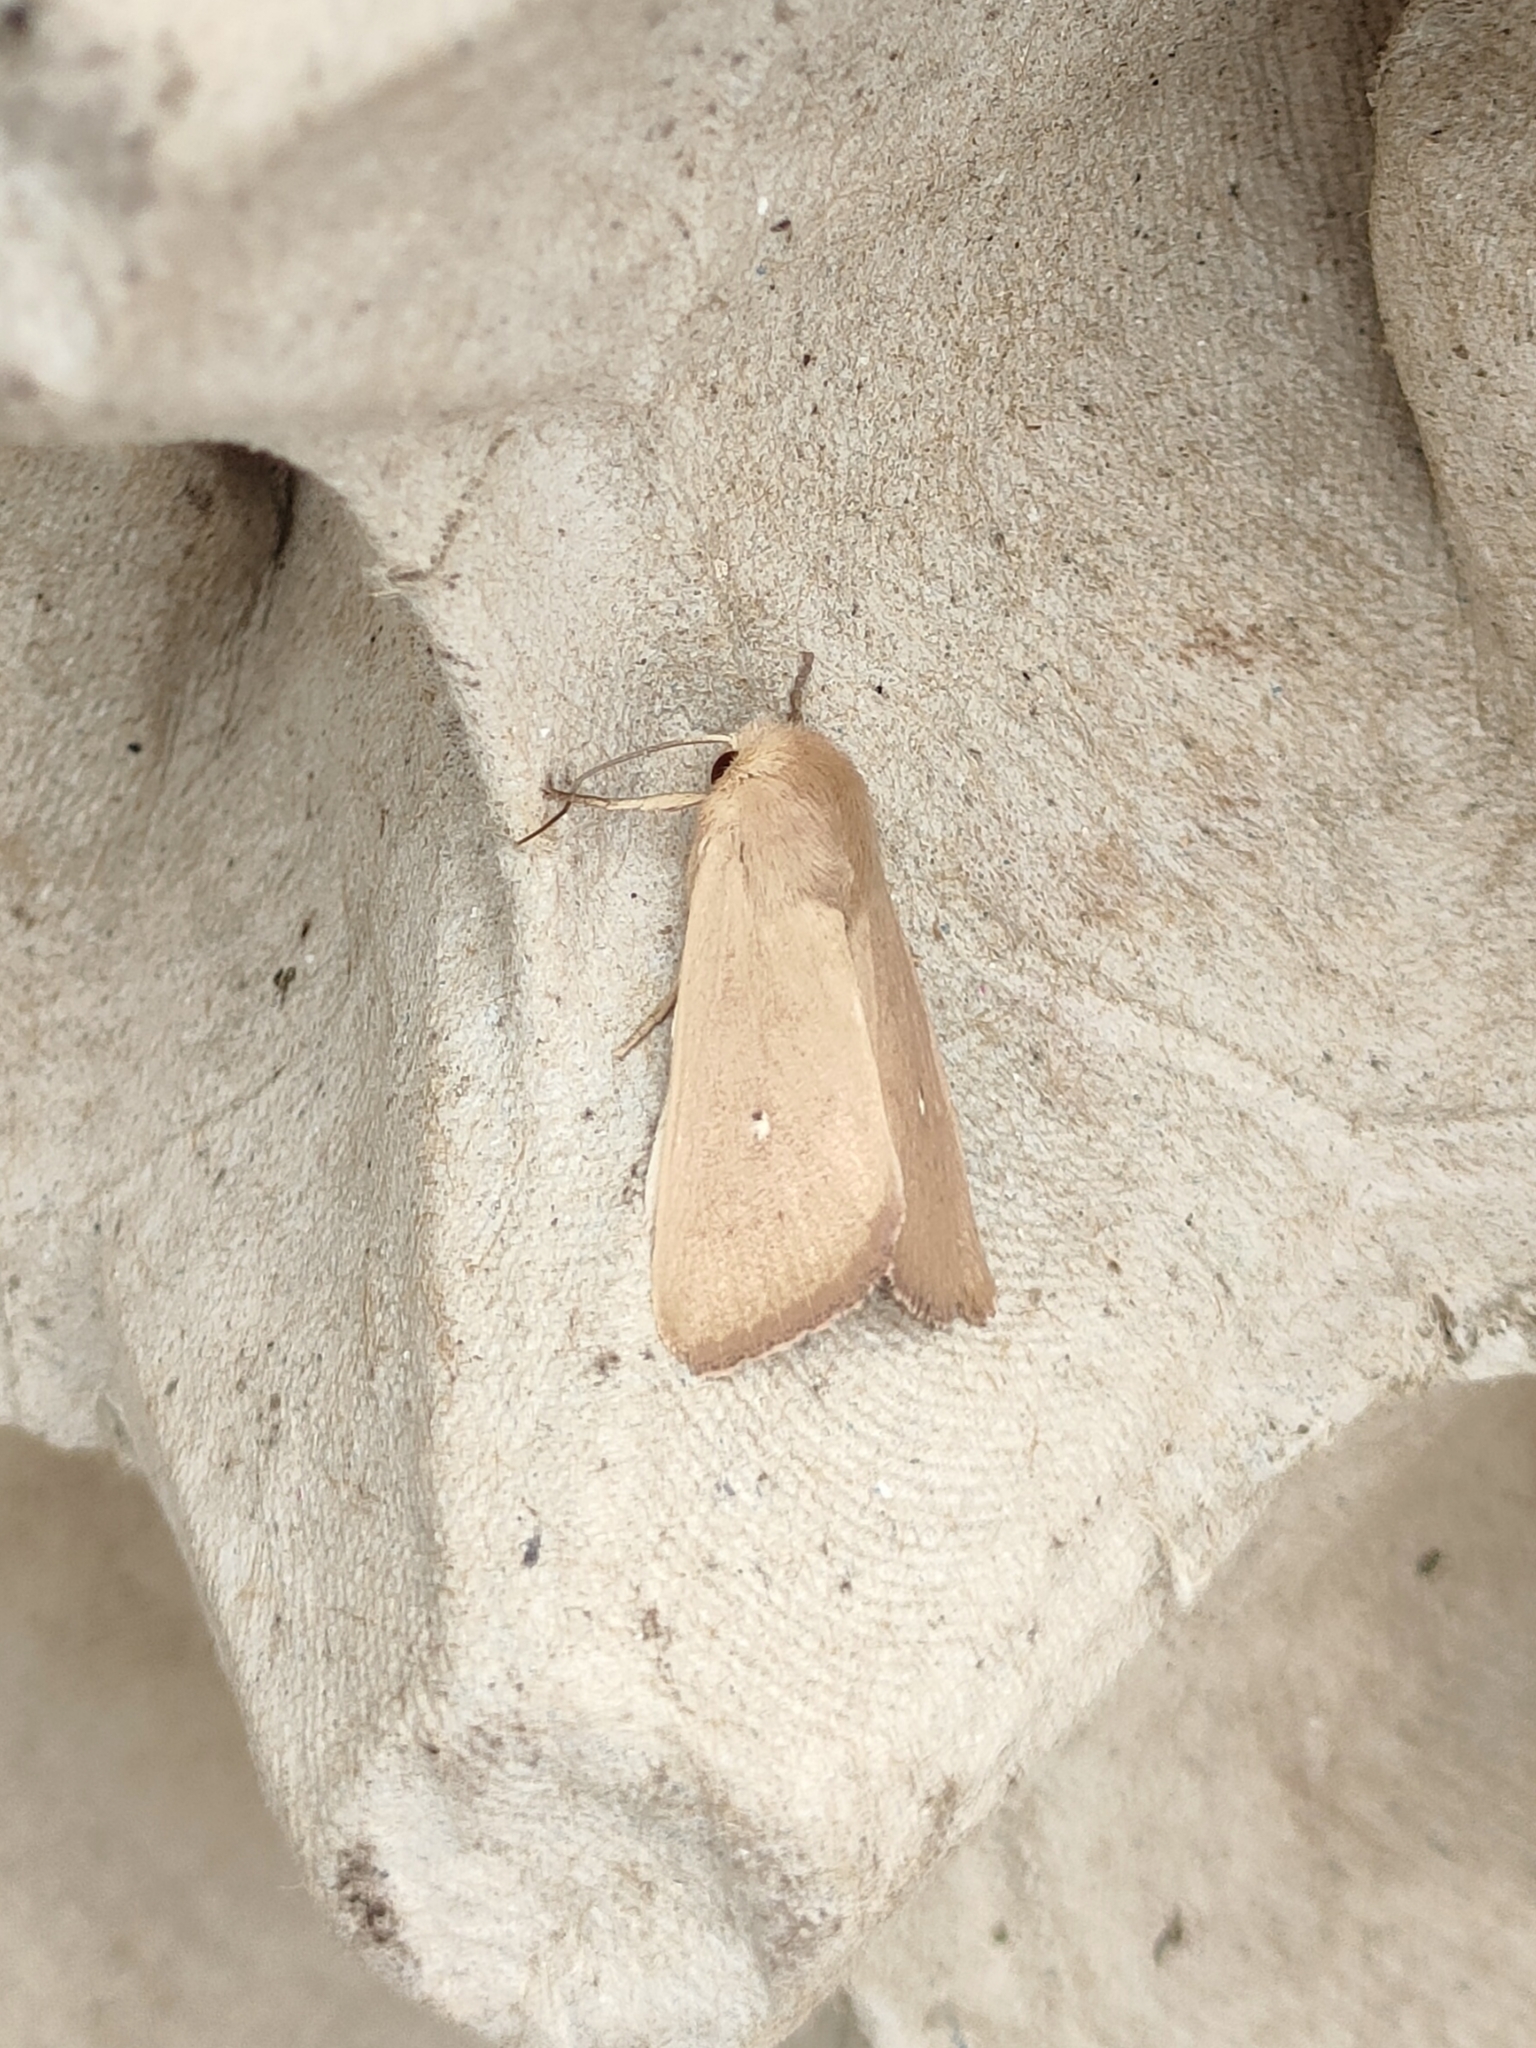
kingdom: Animalia
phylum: Arthropoda
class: Insecta
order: Lepidoptera
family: Noctuidae
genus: Mythimna
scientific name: Mythimna sicula
